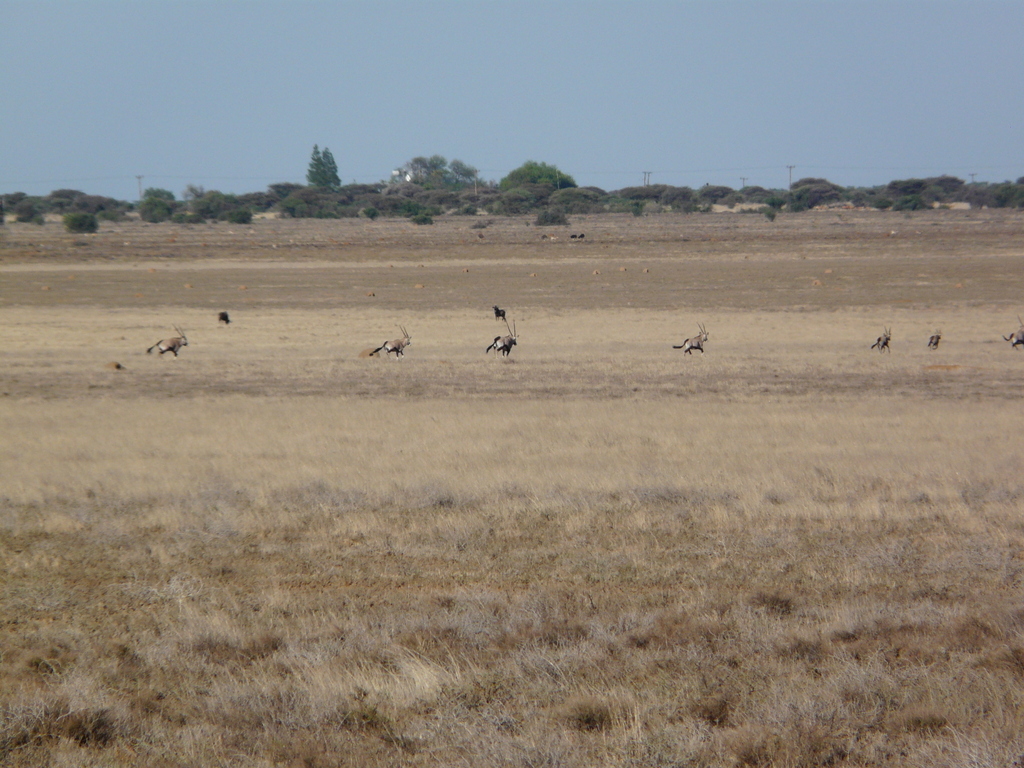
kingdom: Animalia
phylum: Chordata
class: Mammalia
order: Artiodactyla
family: Bovidae
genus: Oryx
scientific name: Oryx gazella
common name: Gemsbok
